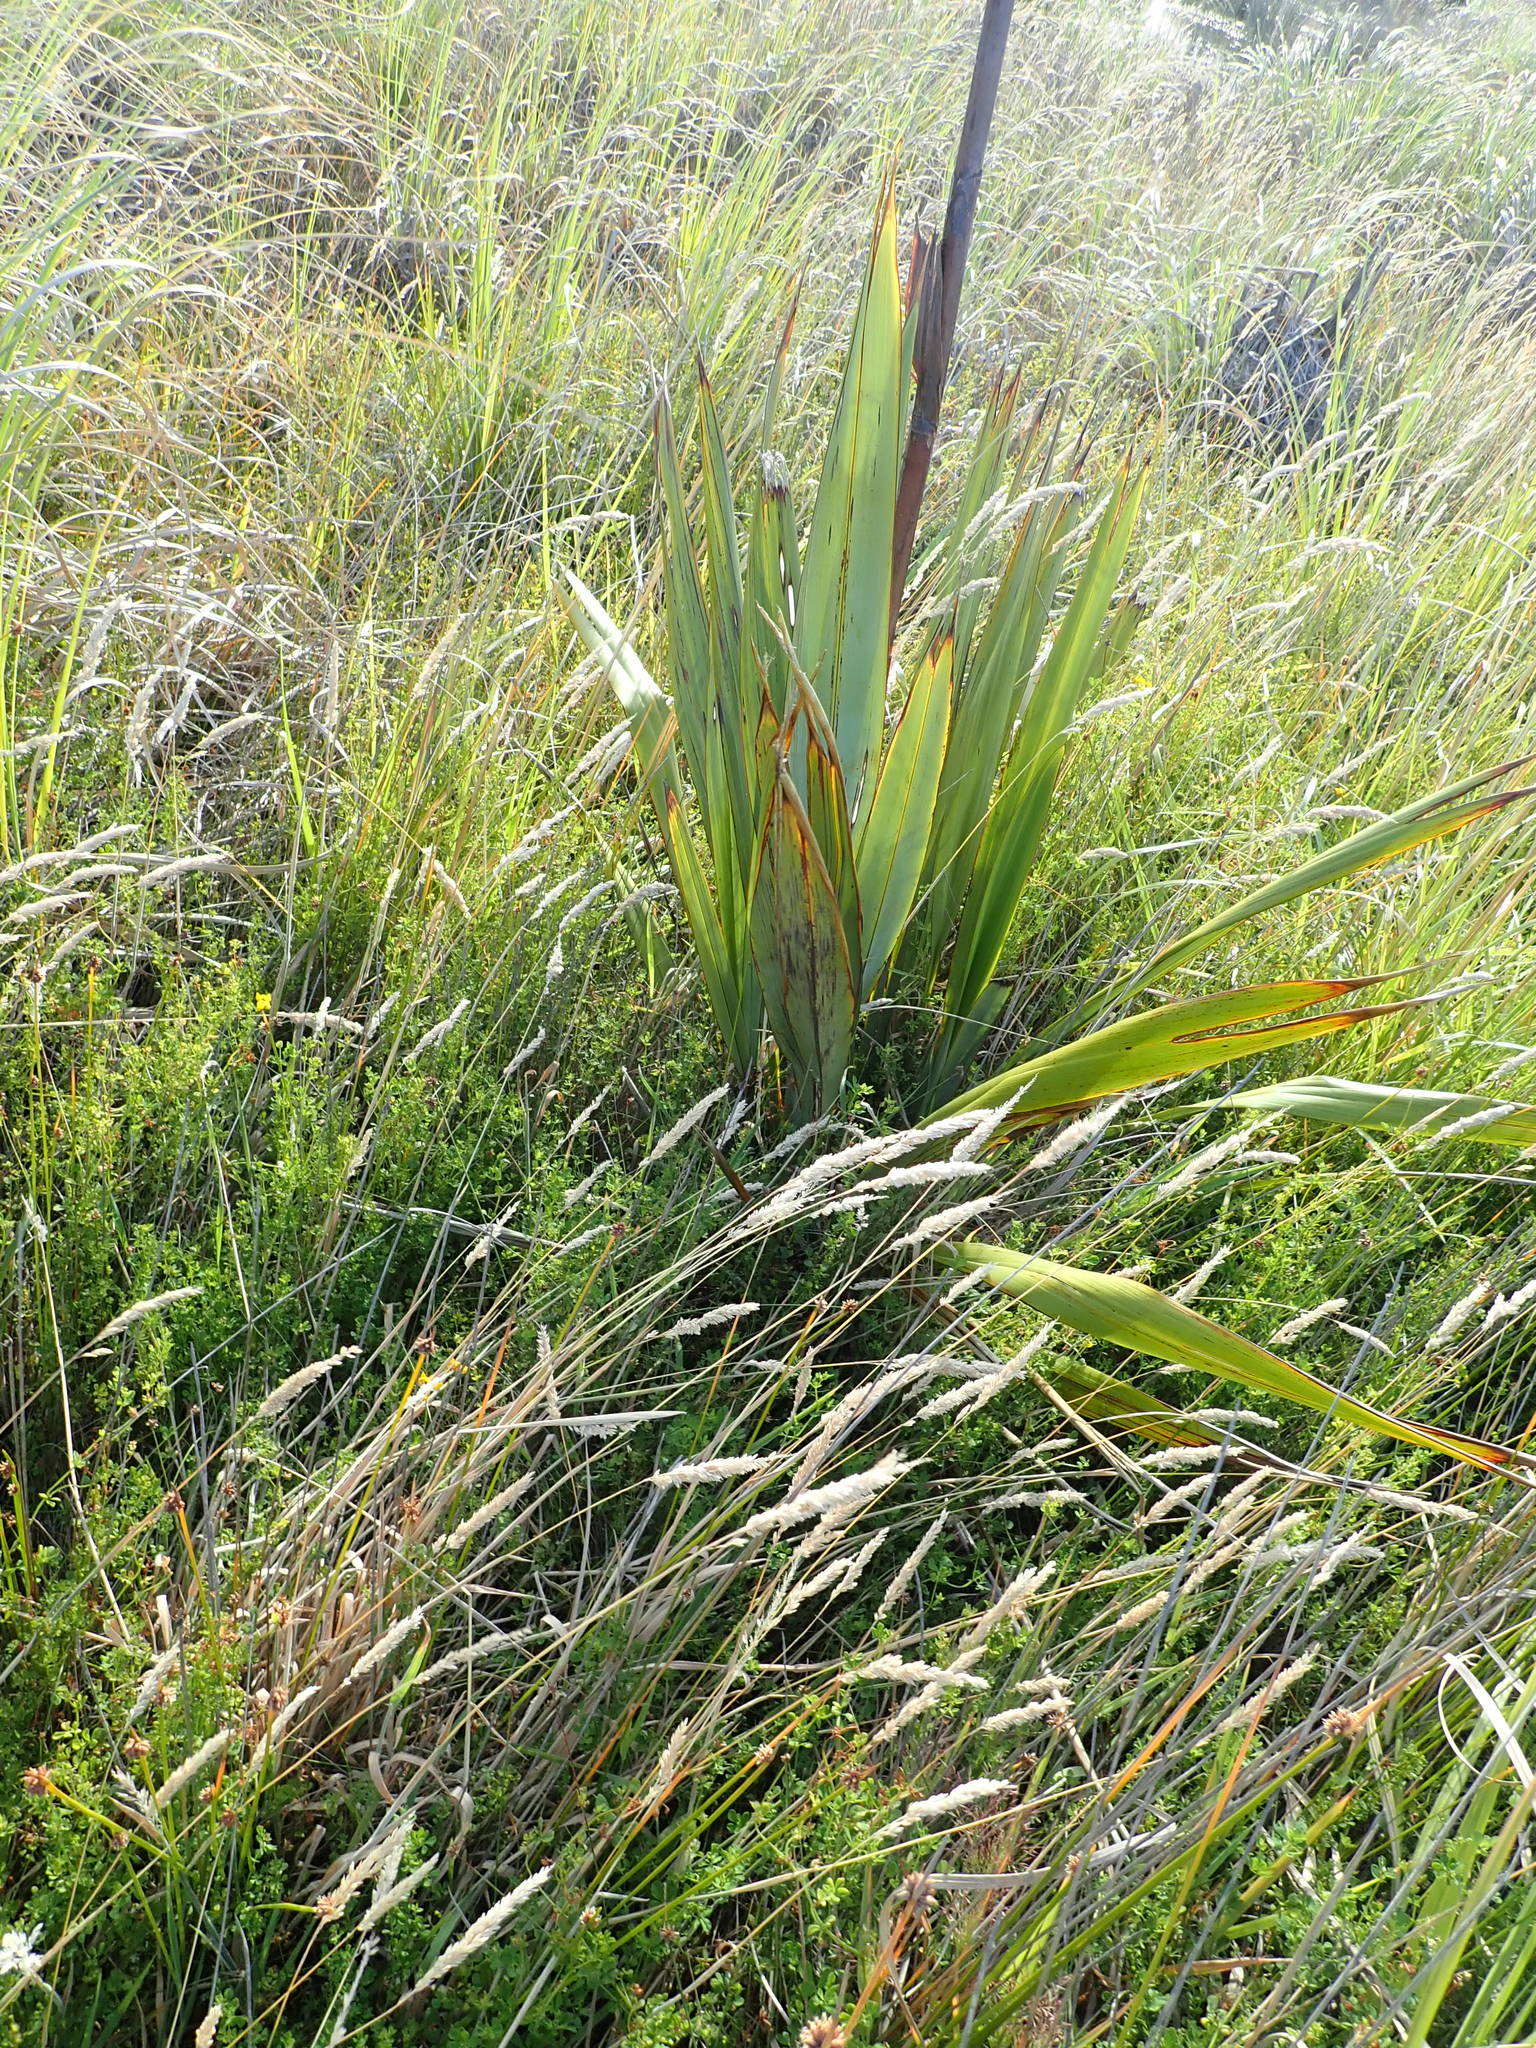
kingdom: Plantae
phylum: Tracheophyta
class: Liliopsida
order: Asparagales
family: Asphodelaceae
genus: Phormium
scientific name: Phormium tenax
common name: New zealand flax
